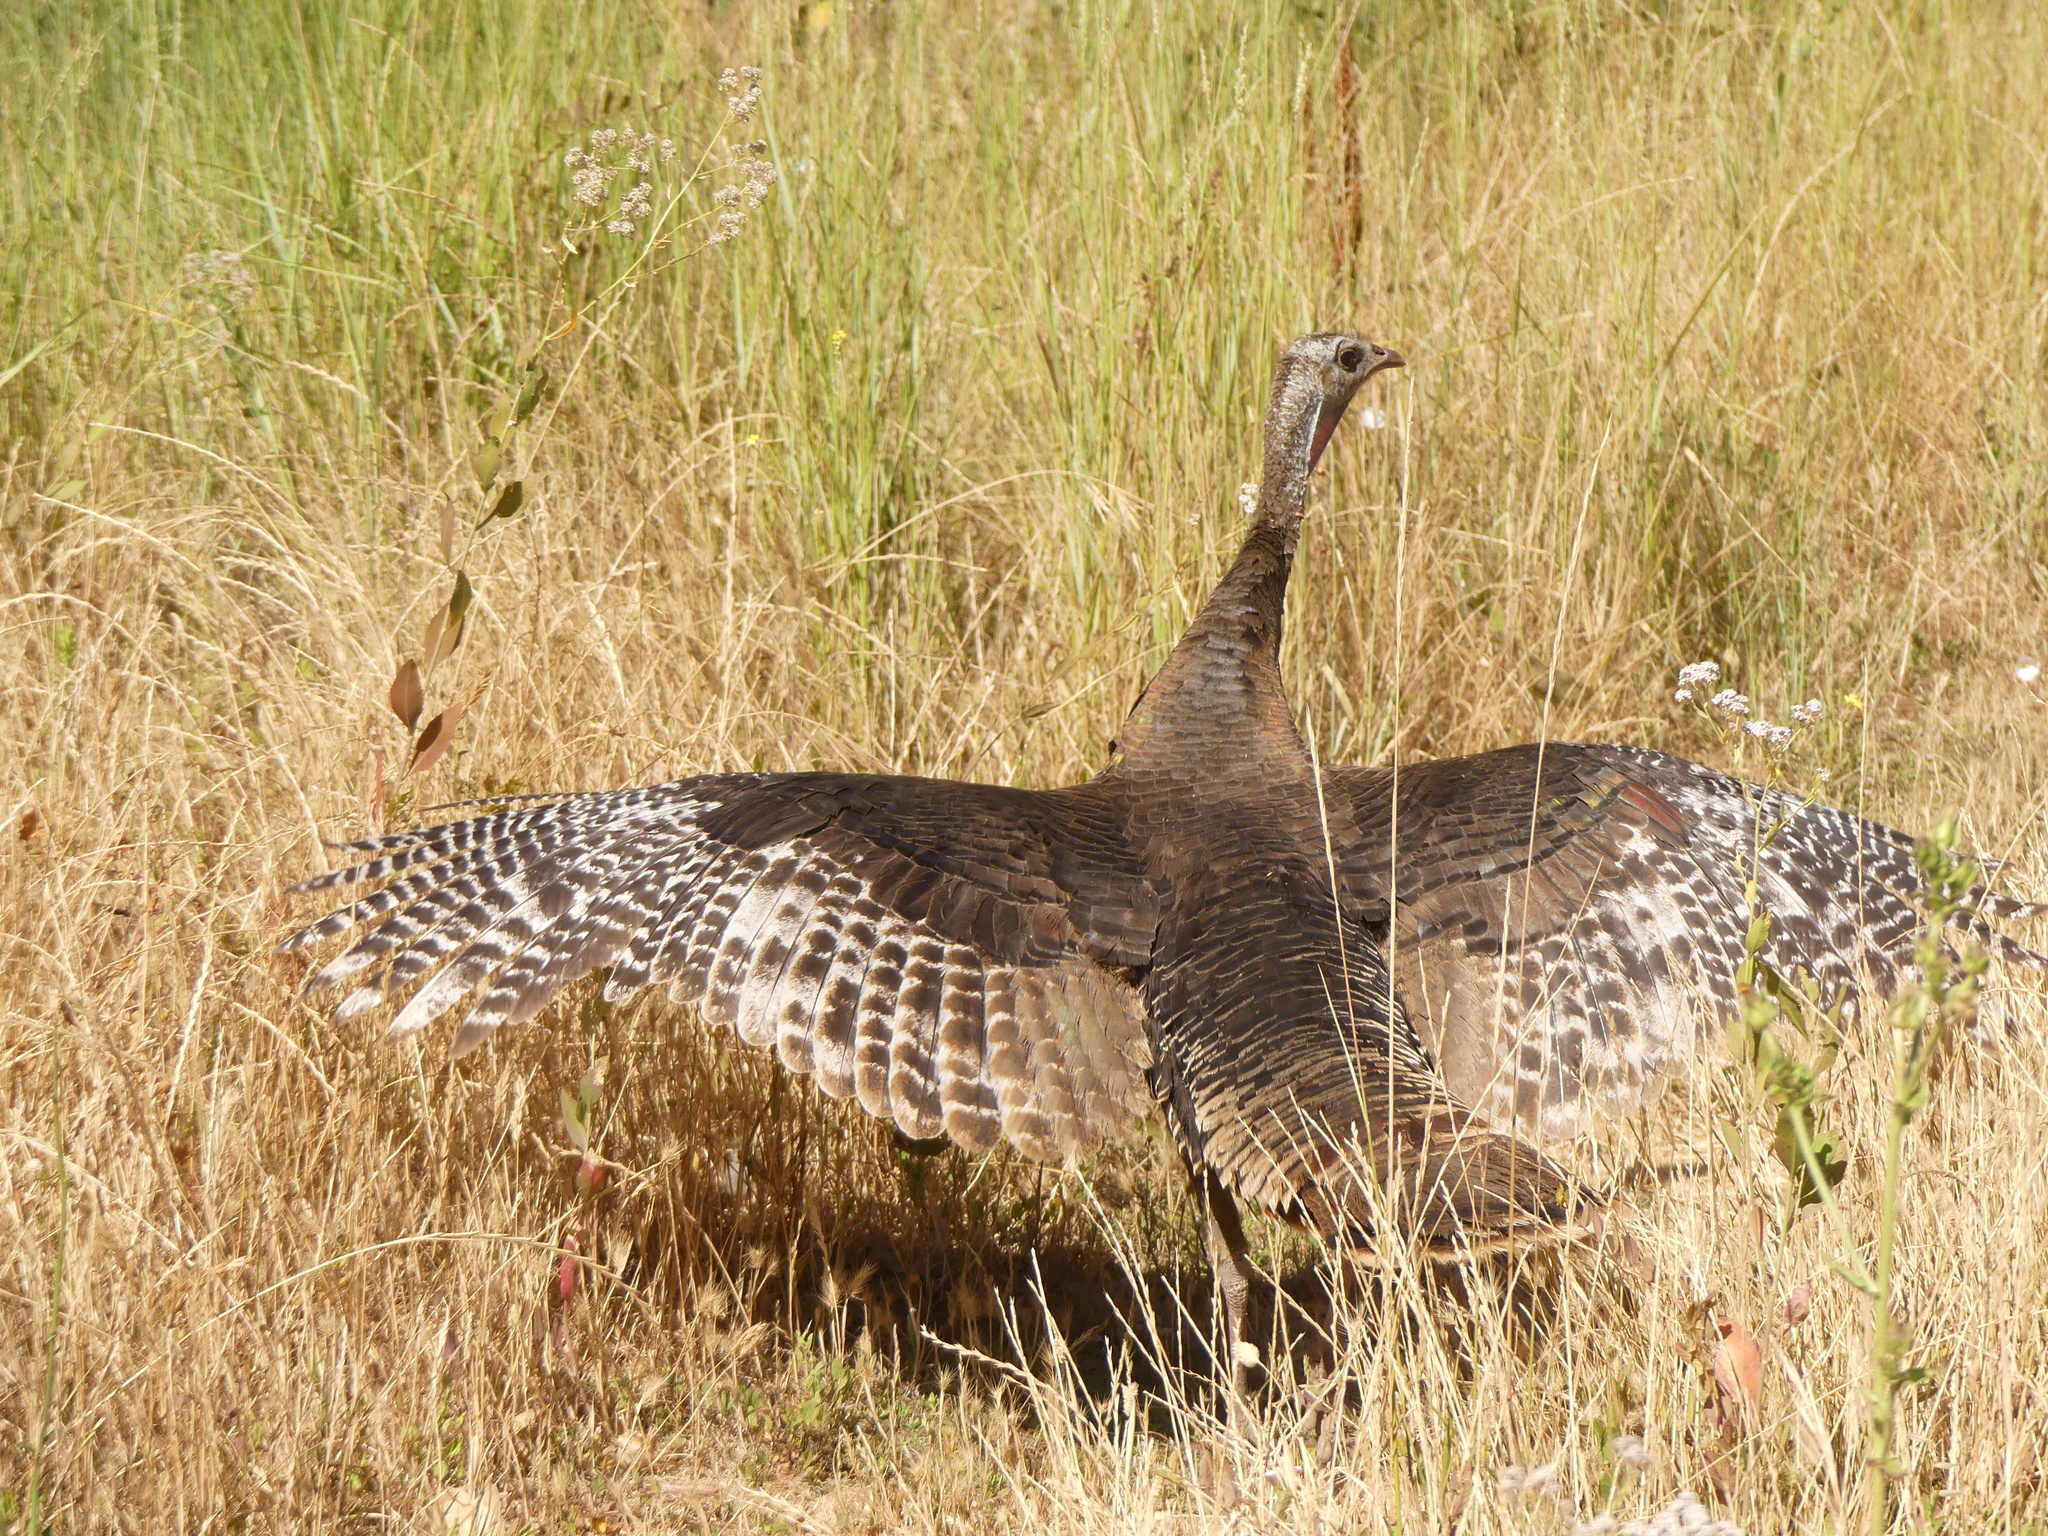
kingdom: Animalia
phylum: Chordata
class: Aves
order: Galliformes
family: Phasianidae
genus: Meleagris
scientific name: Meleagris gallopavo
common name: Wild turkey
